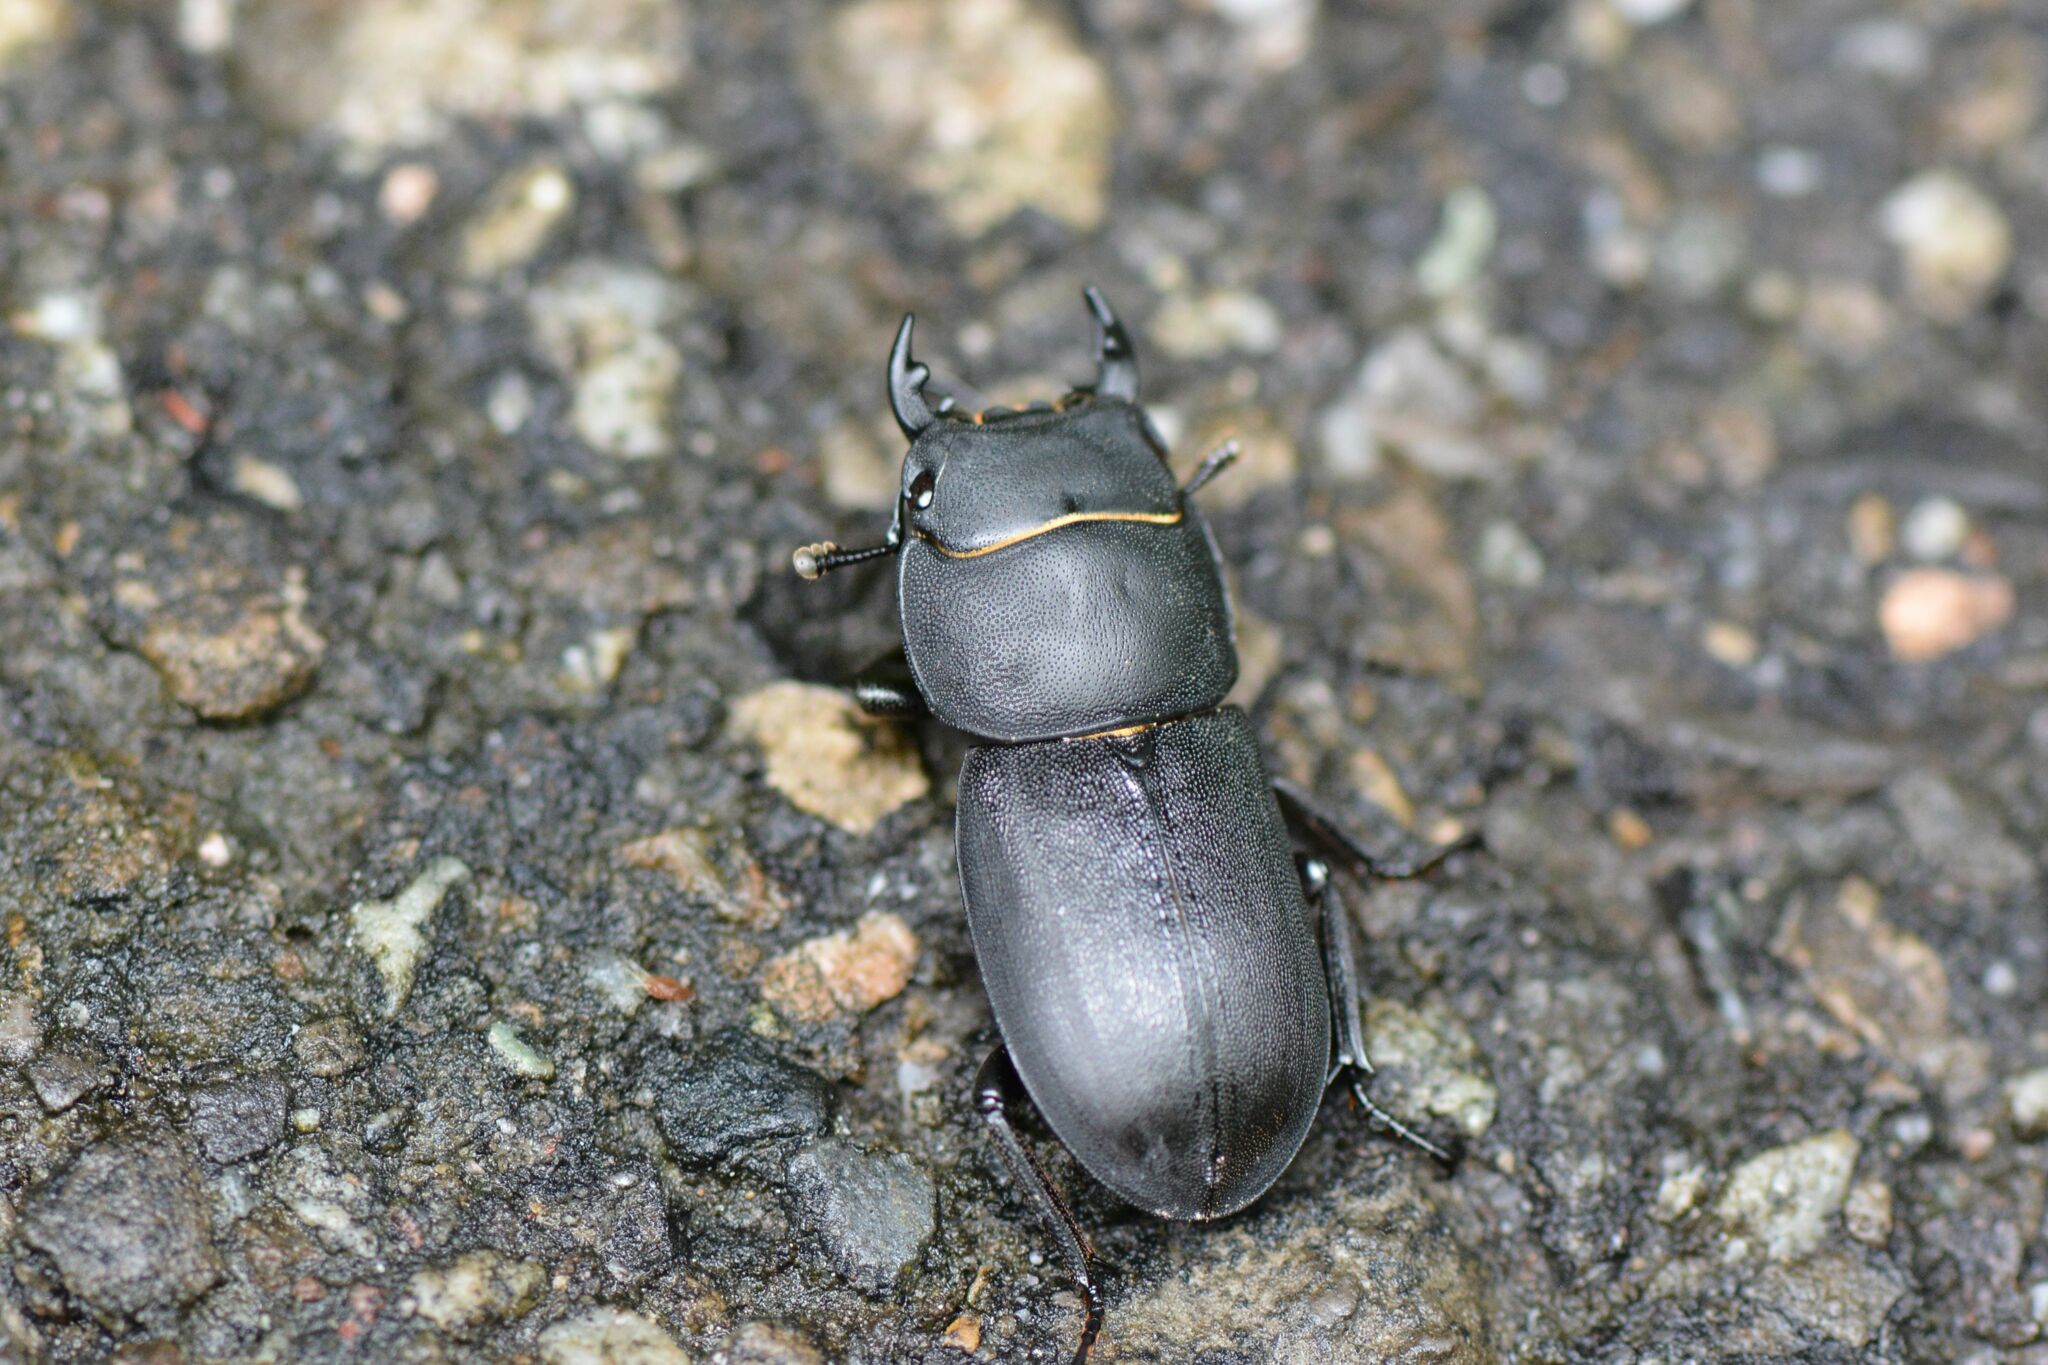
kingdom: Animalia
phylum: Arthropoda
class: Insecta
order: Coleoptera
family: Lucanidae
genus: Dorcus
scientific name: Dorcus parallelipipedus
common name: Lesser stag beetle
